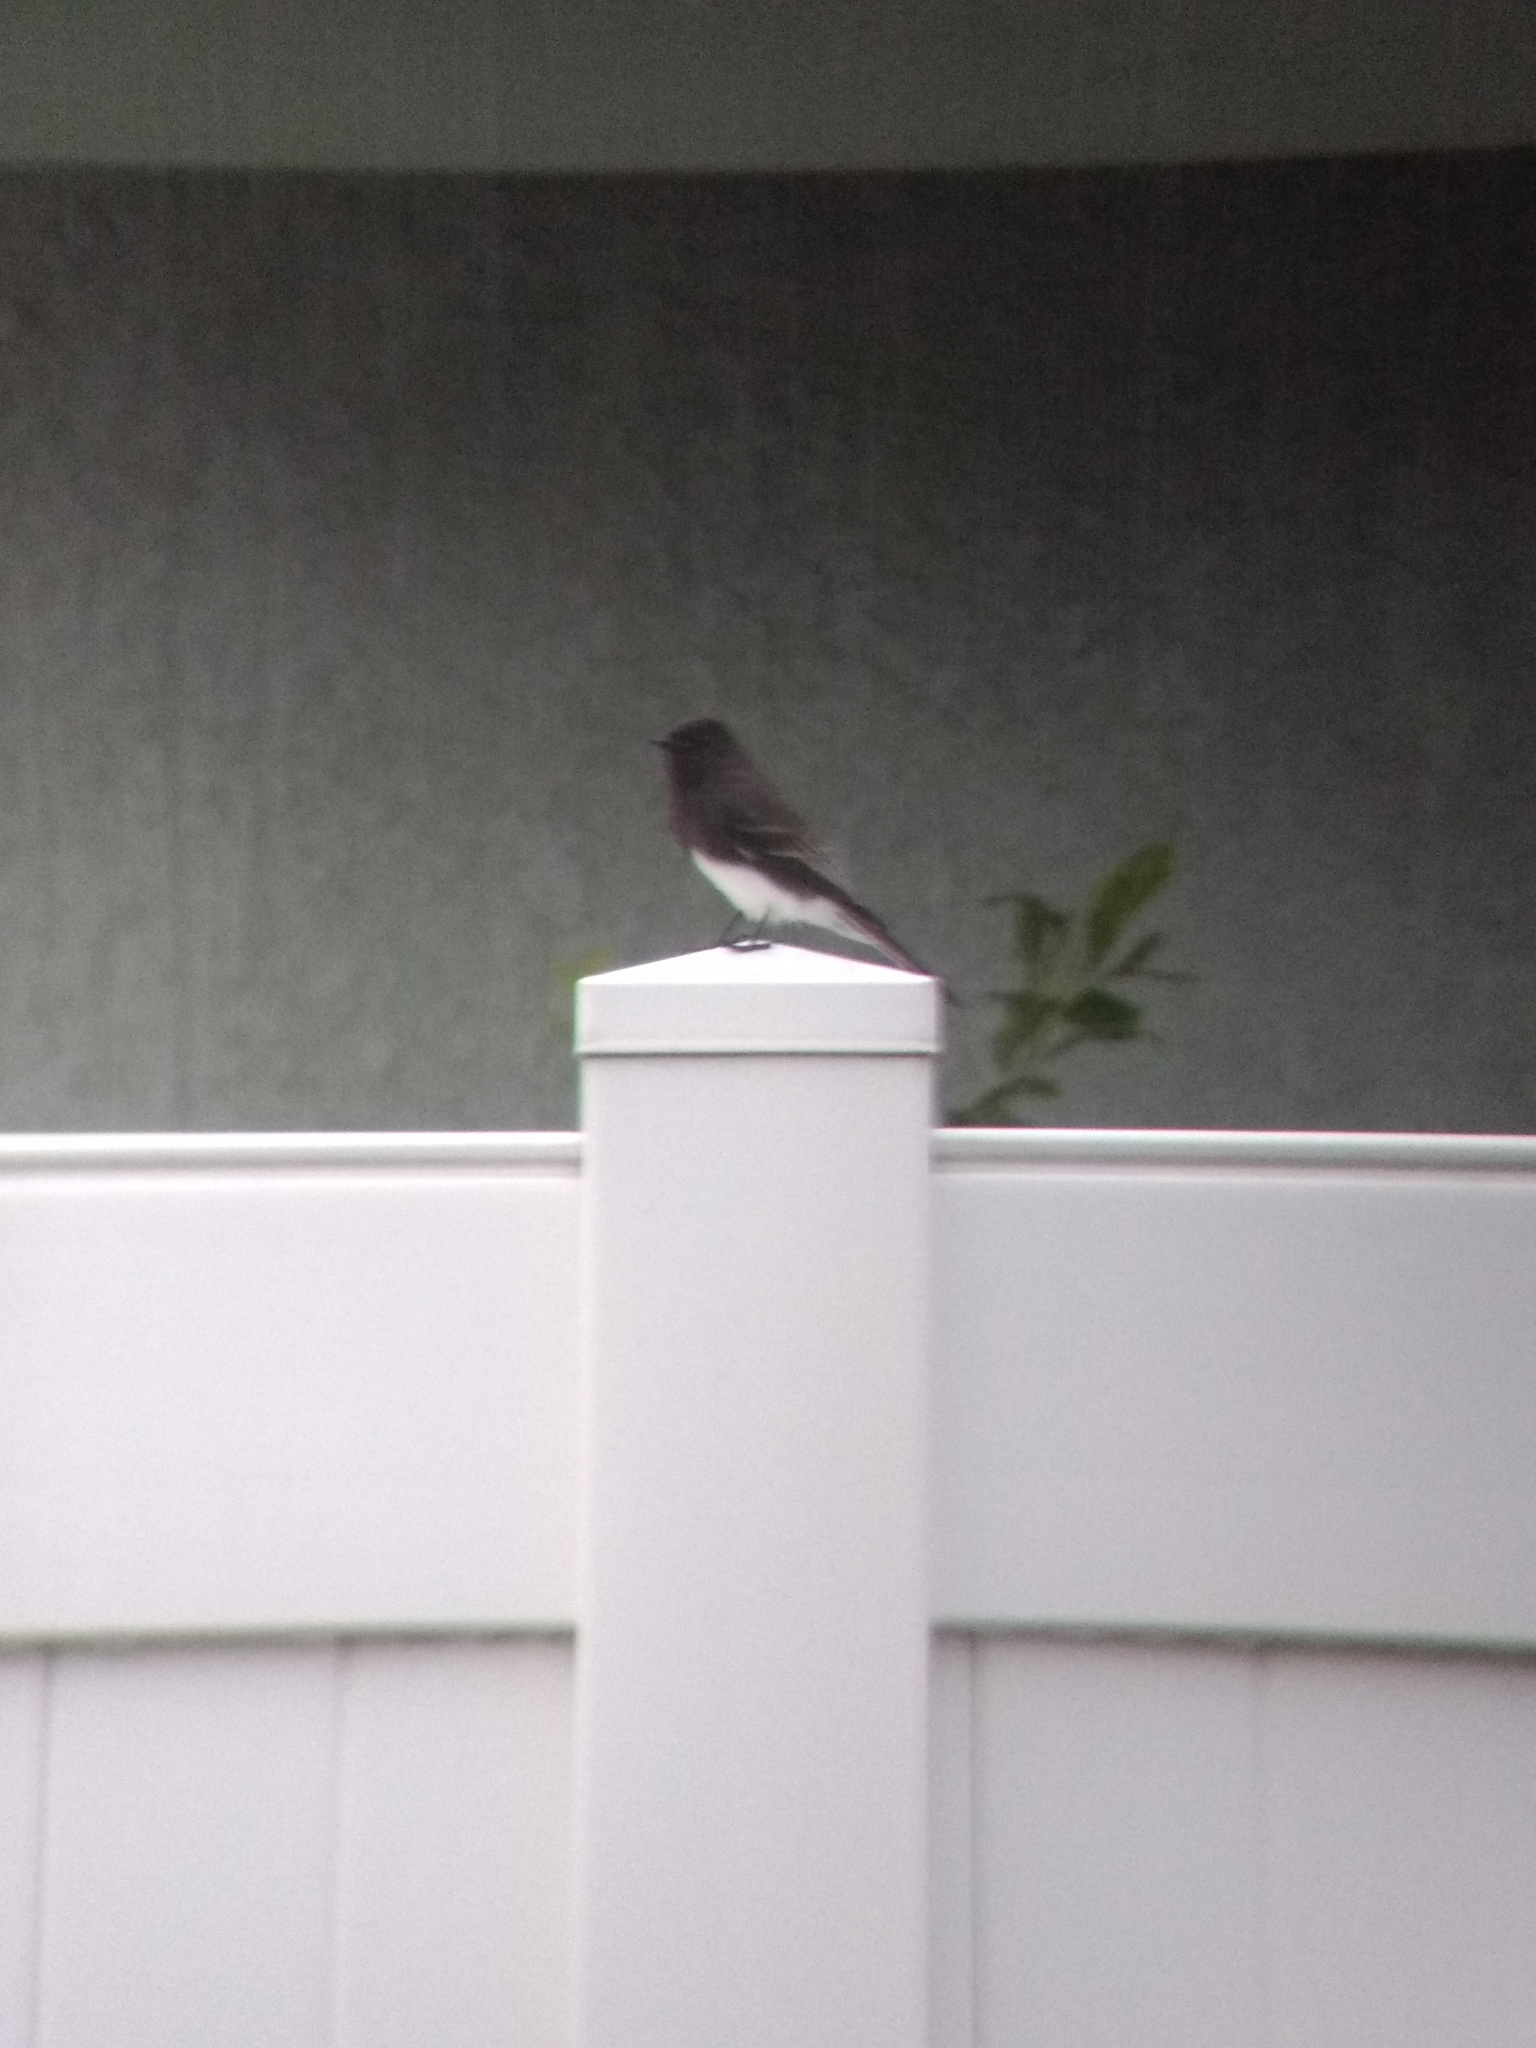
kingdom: Animalia
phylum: Chordata
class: Aves
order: Passeriformes
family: Tyrannidae
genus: Sayornis
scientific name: Sayornis nigricans
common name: Black phoebe
